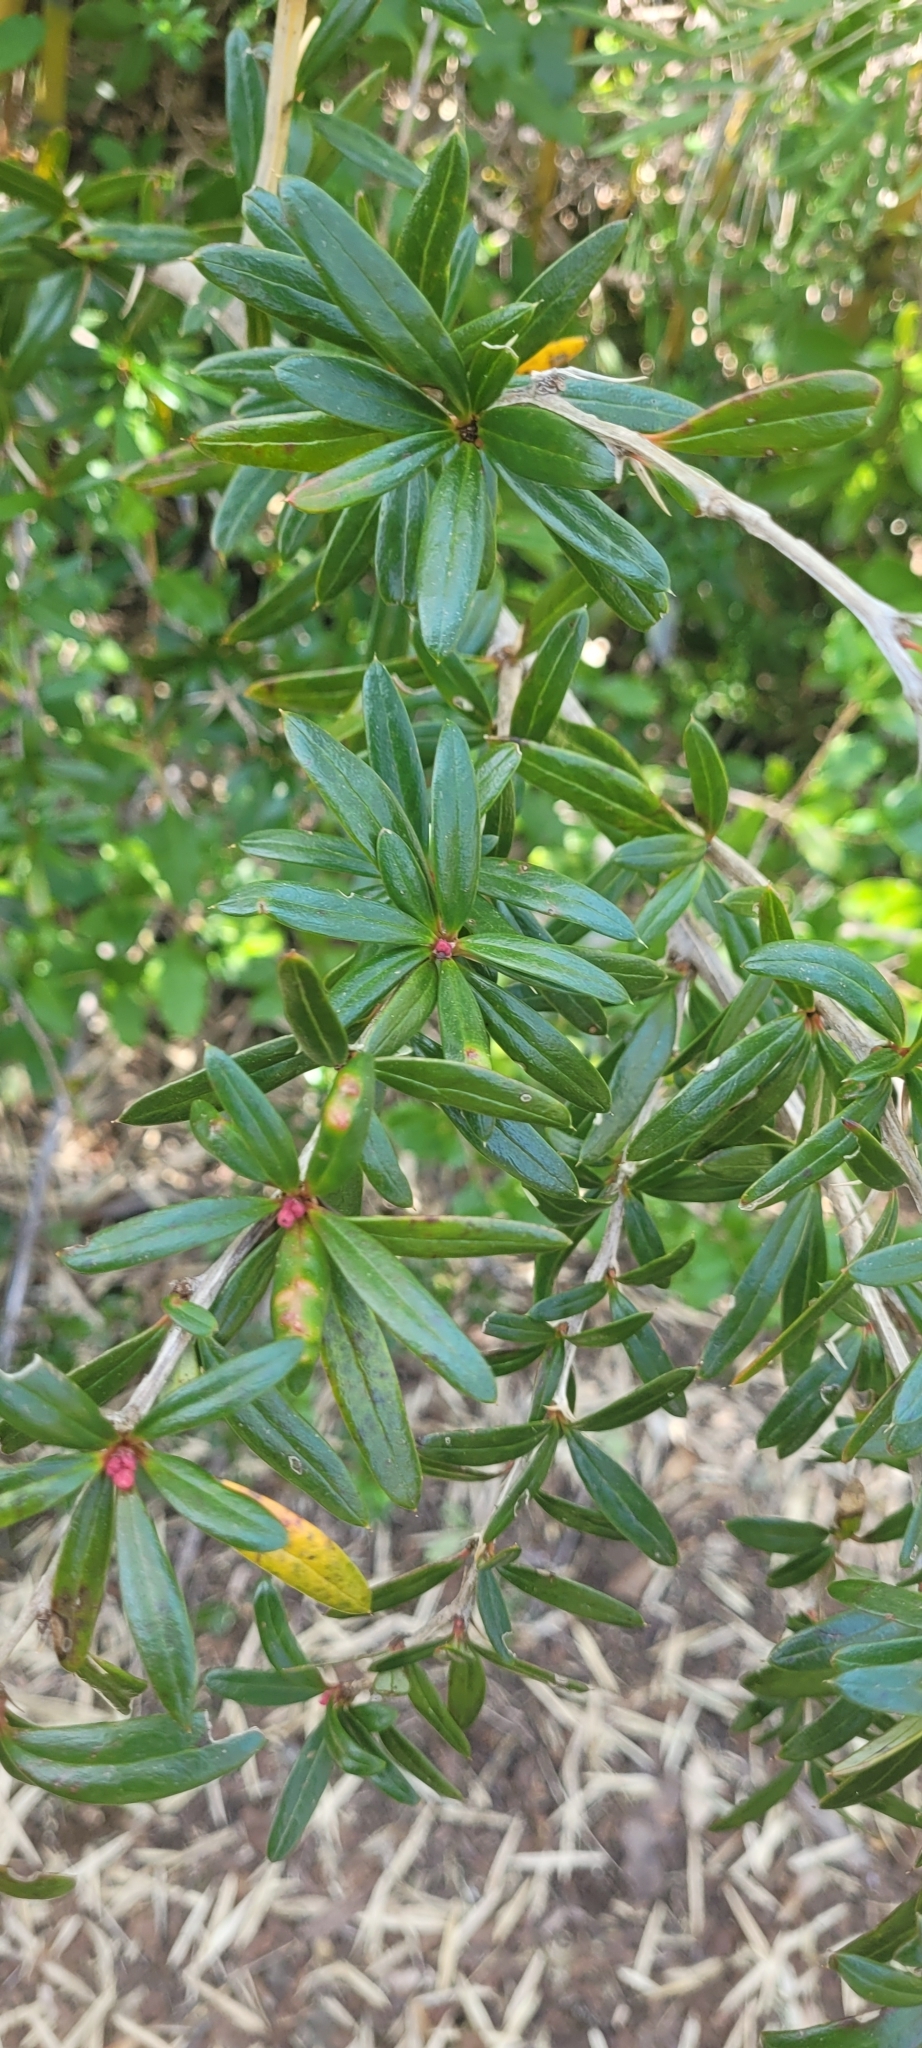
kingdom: Plantae
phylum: Tracheophyta
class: Magnoliopsida
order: Ranunculales
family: Berberidaceae
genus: Berberis
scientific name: Berberis trigona
